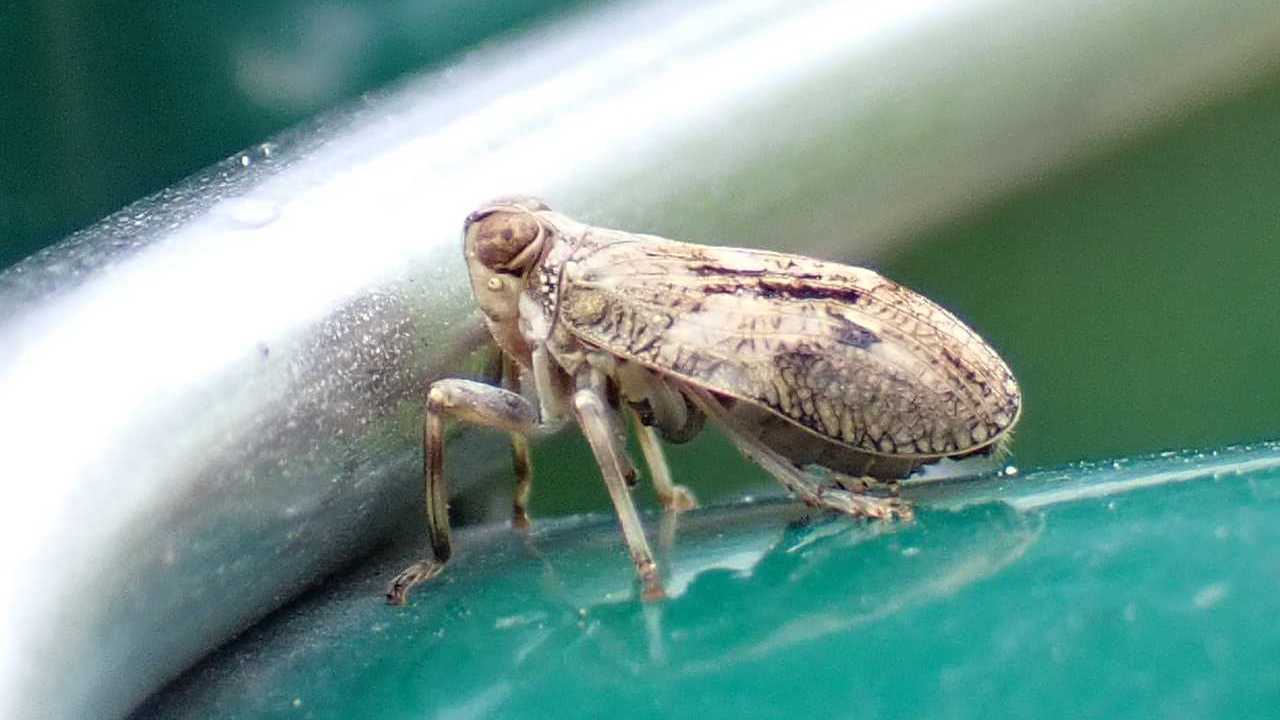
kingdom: Animalia
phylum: Arthropoda
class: Insecta
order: Hemiptera
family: Issidae
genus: Issus
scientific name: Issus coleoptratus
